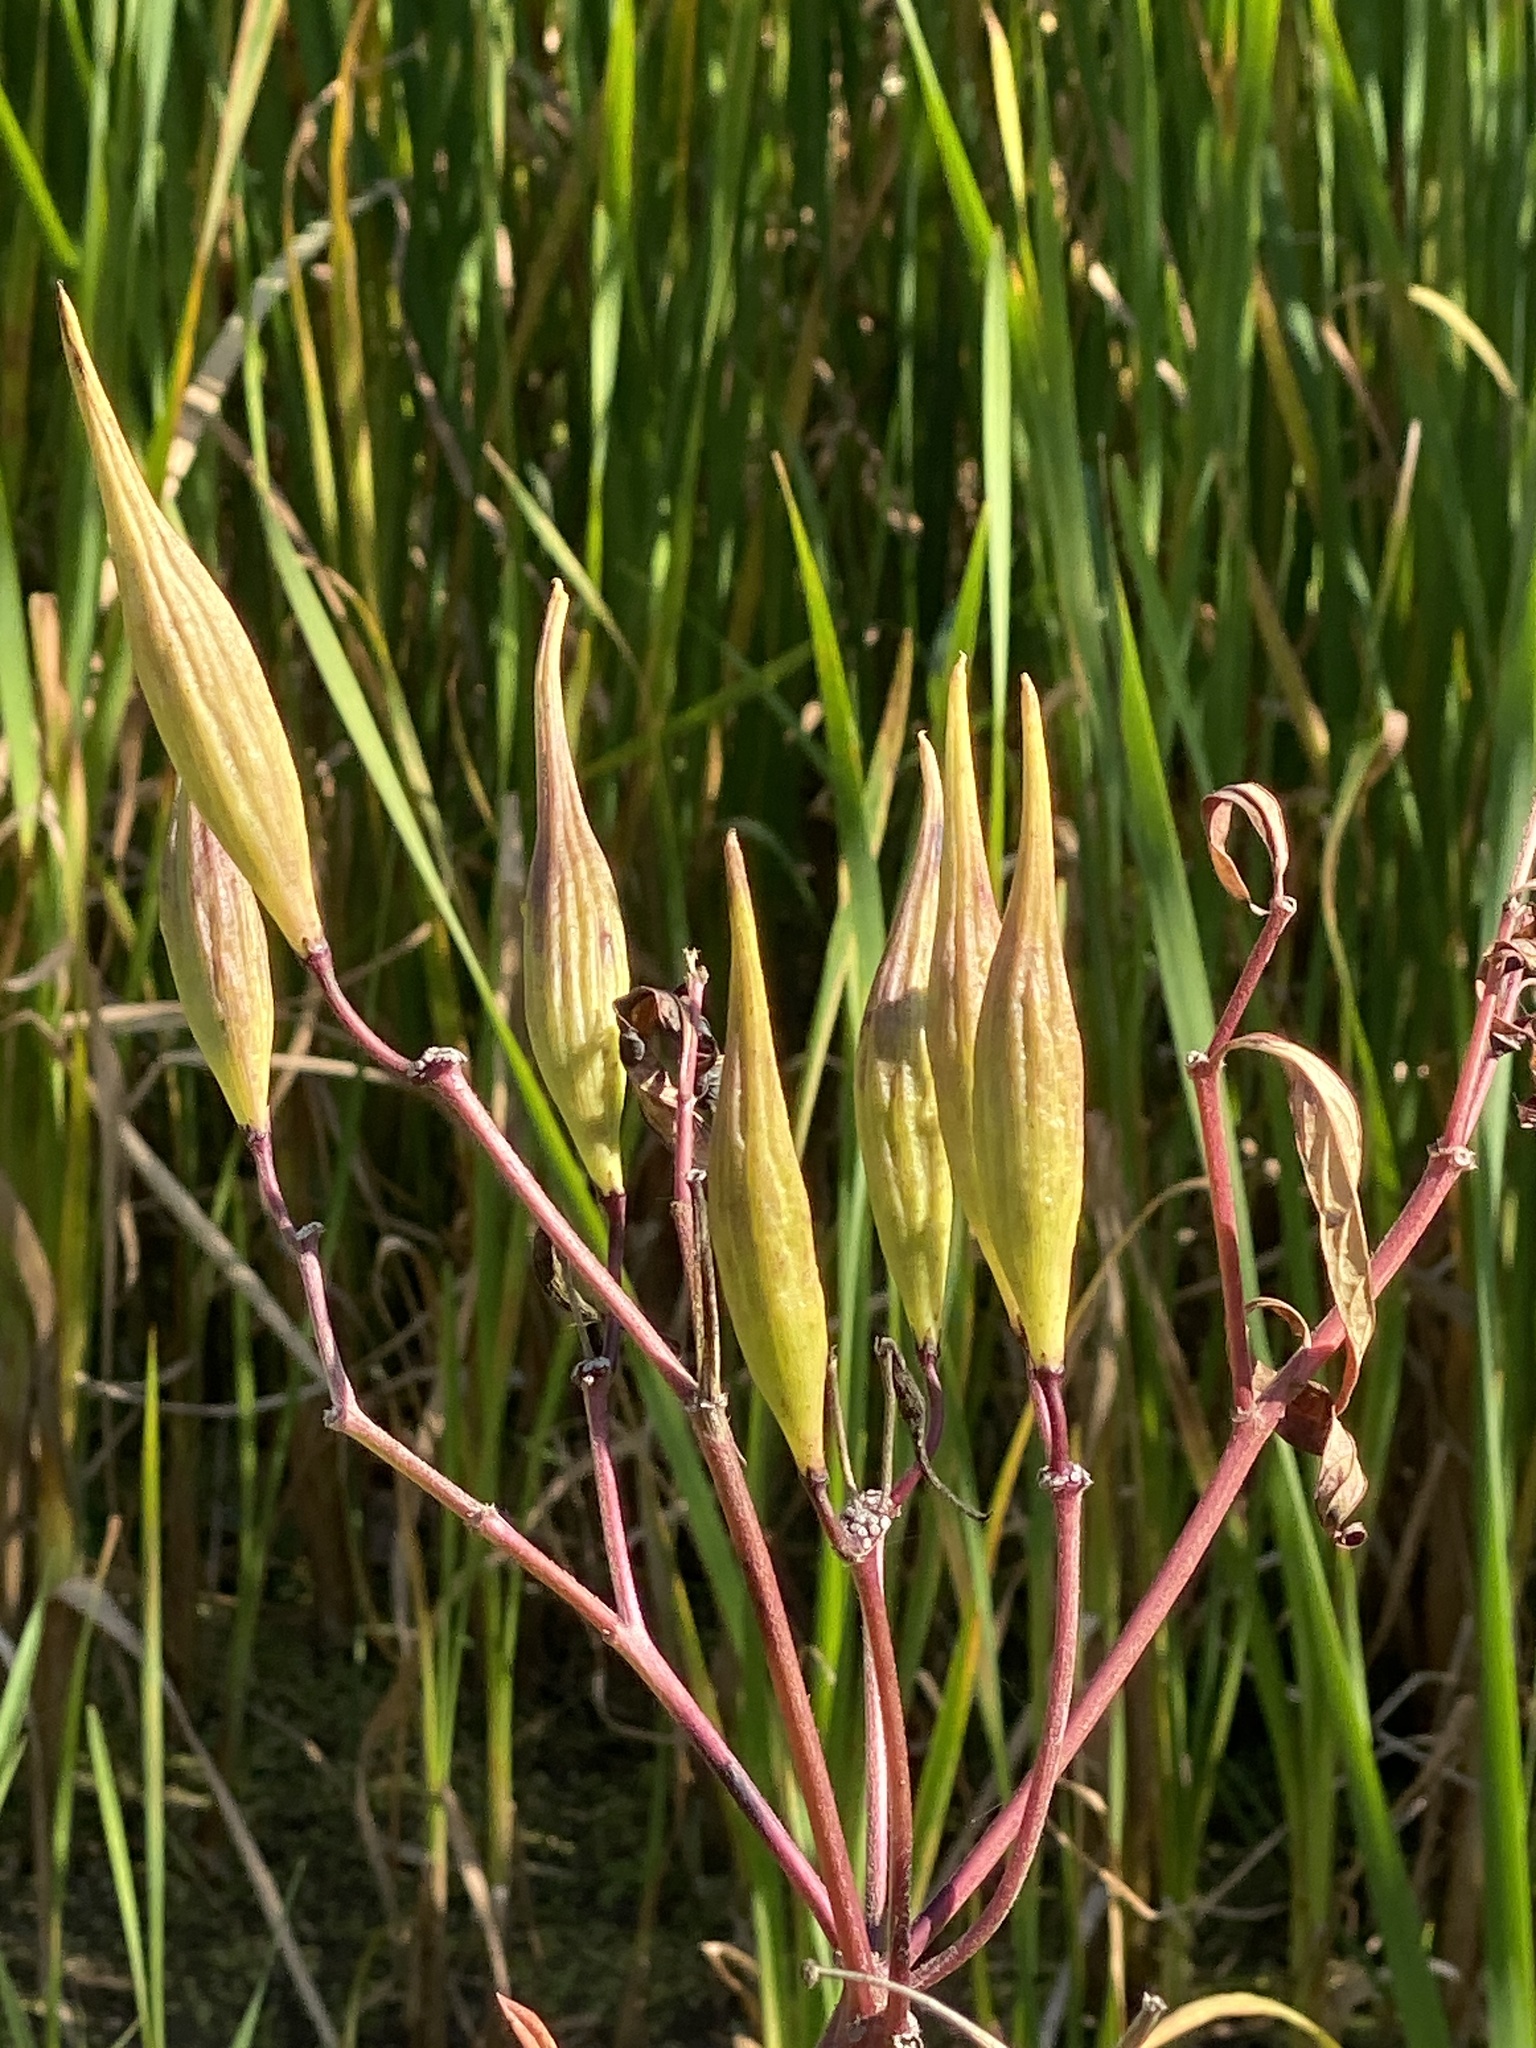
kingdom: Plantae
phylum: Tracheophyta
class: Magnoliopsida
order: Gentianales
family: Apocynaceae
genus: Asclepias
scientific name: Asclepias incarnata
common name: Swamp milkweed
